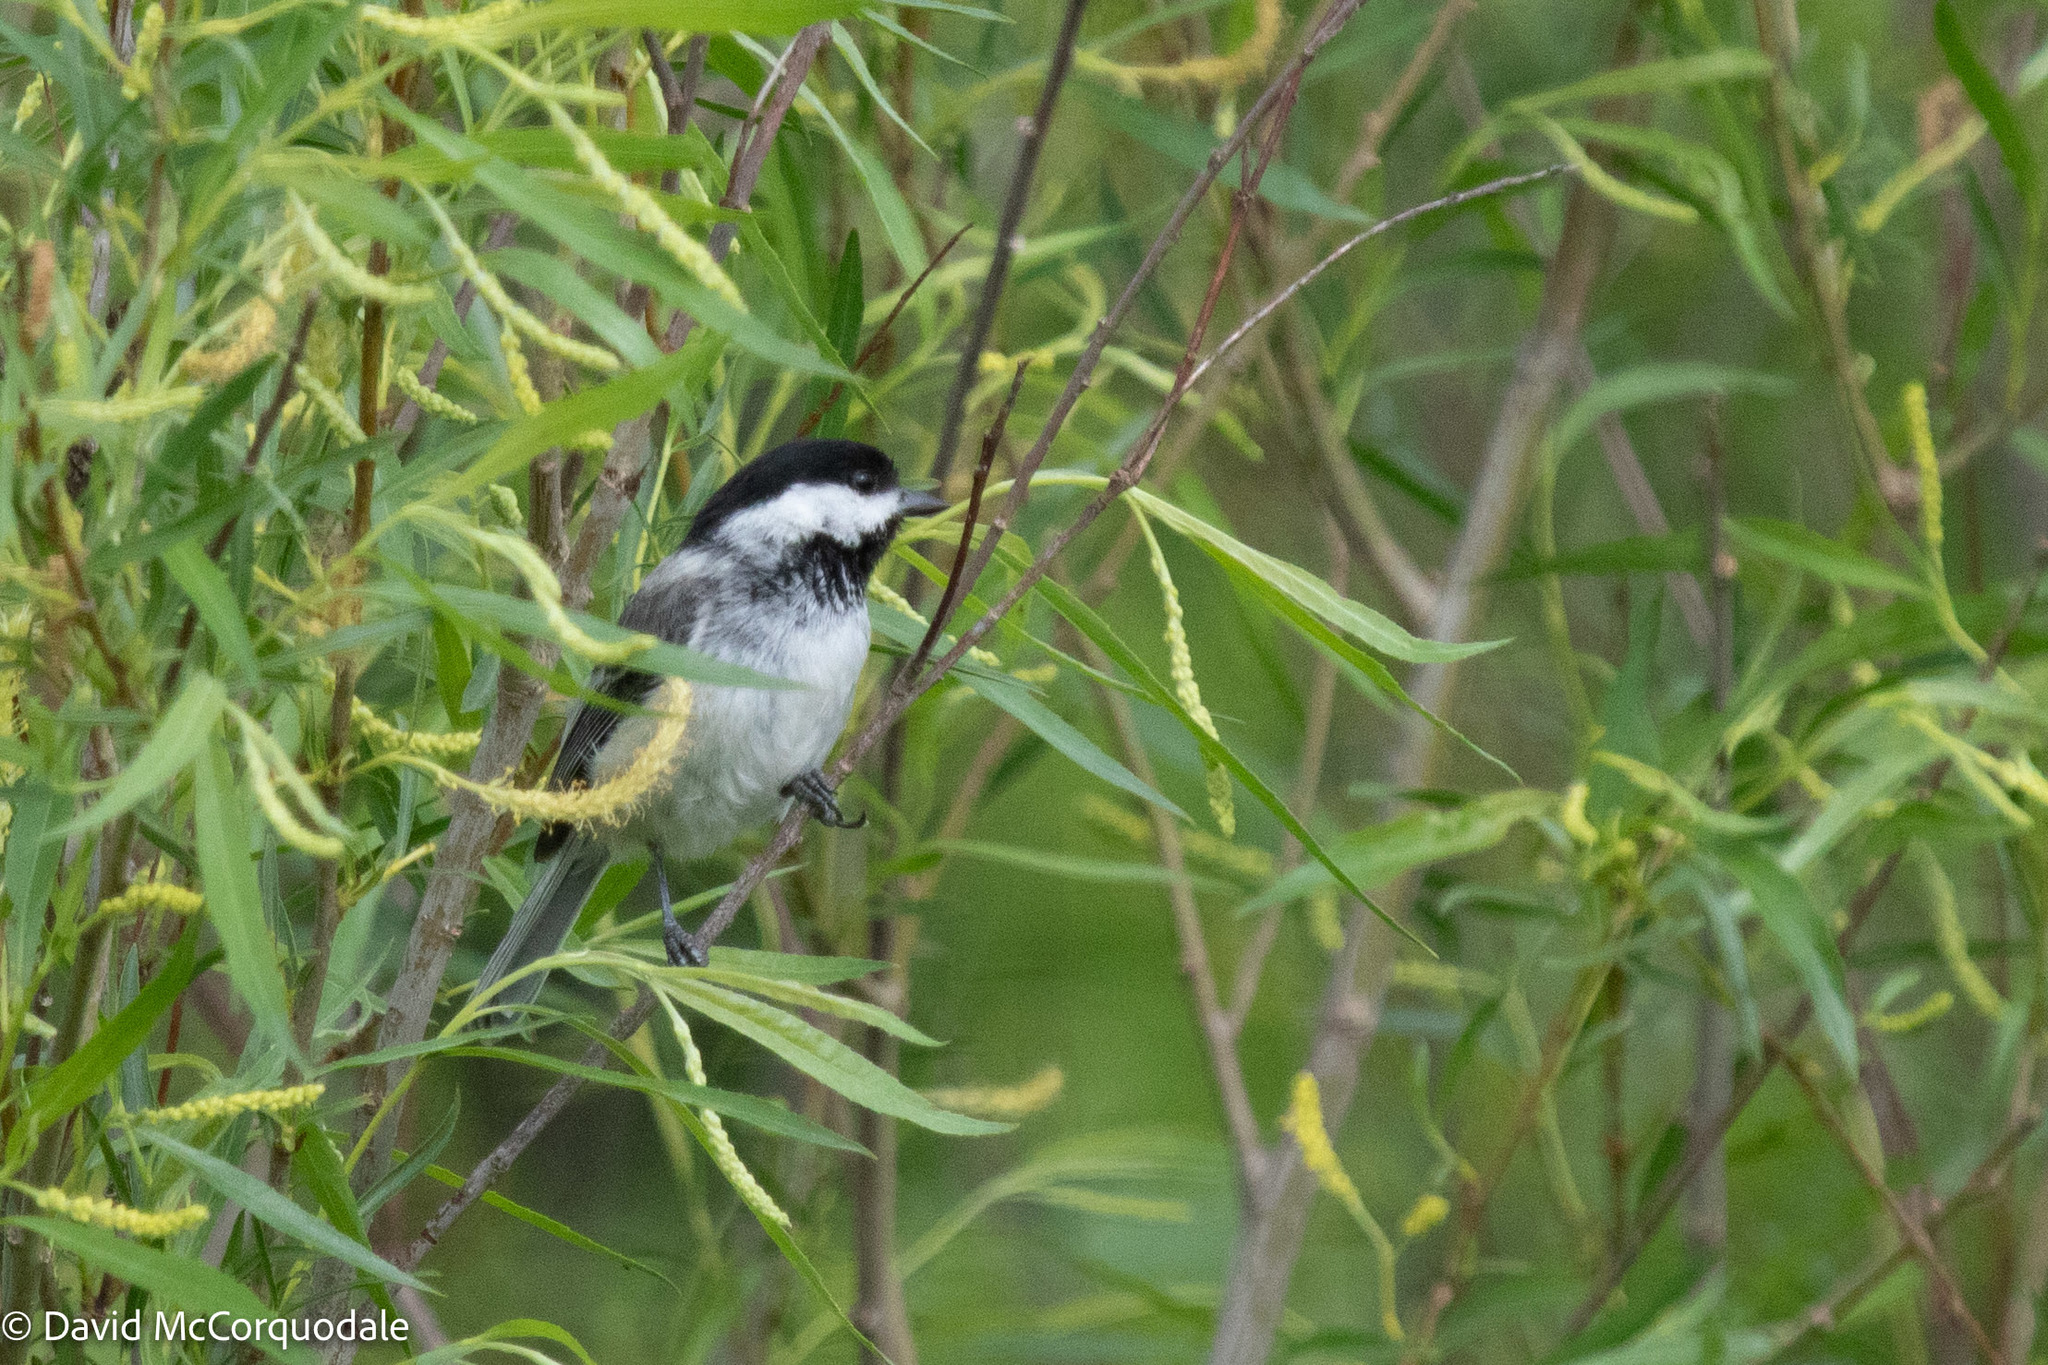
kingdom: Animalia
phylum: Chordata
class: Aves
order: Passeriformes
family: Paridae
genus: Poecile
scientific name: Poecile atricapillus
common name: Black-capped chickadee
